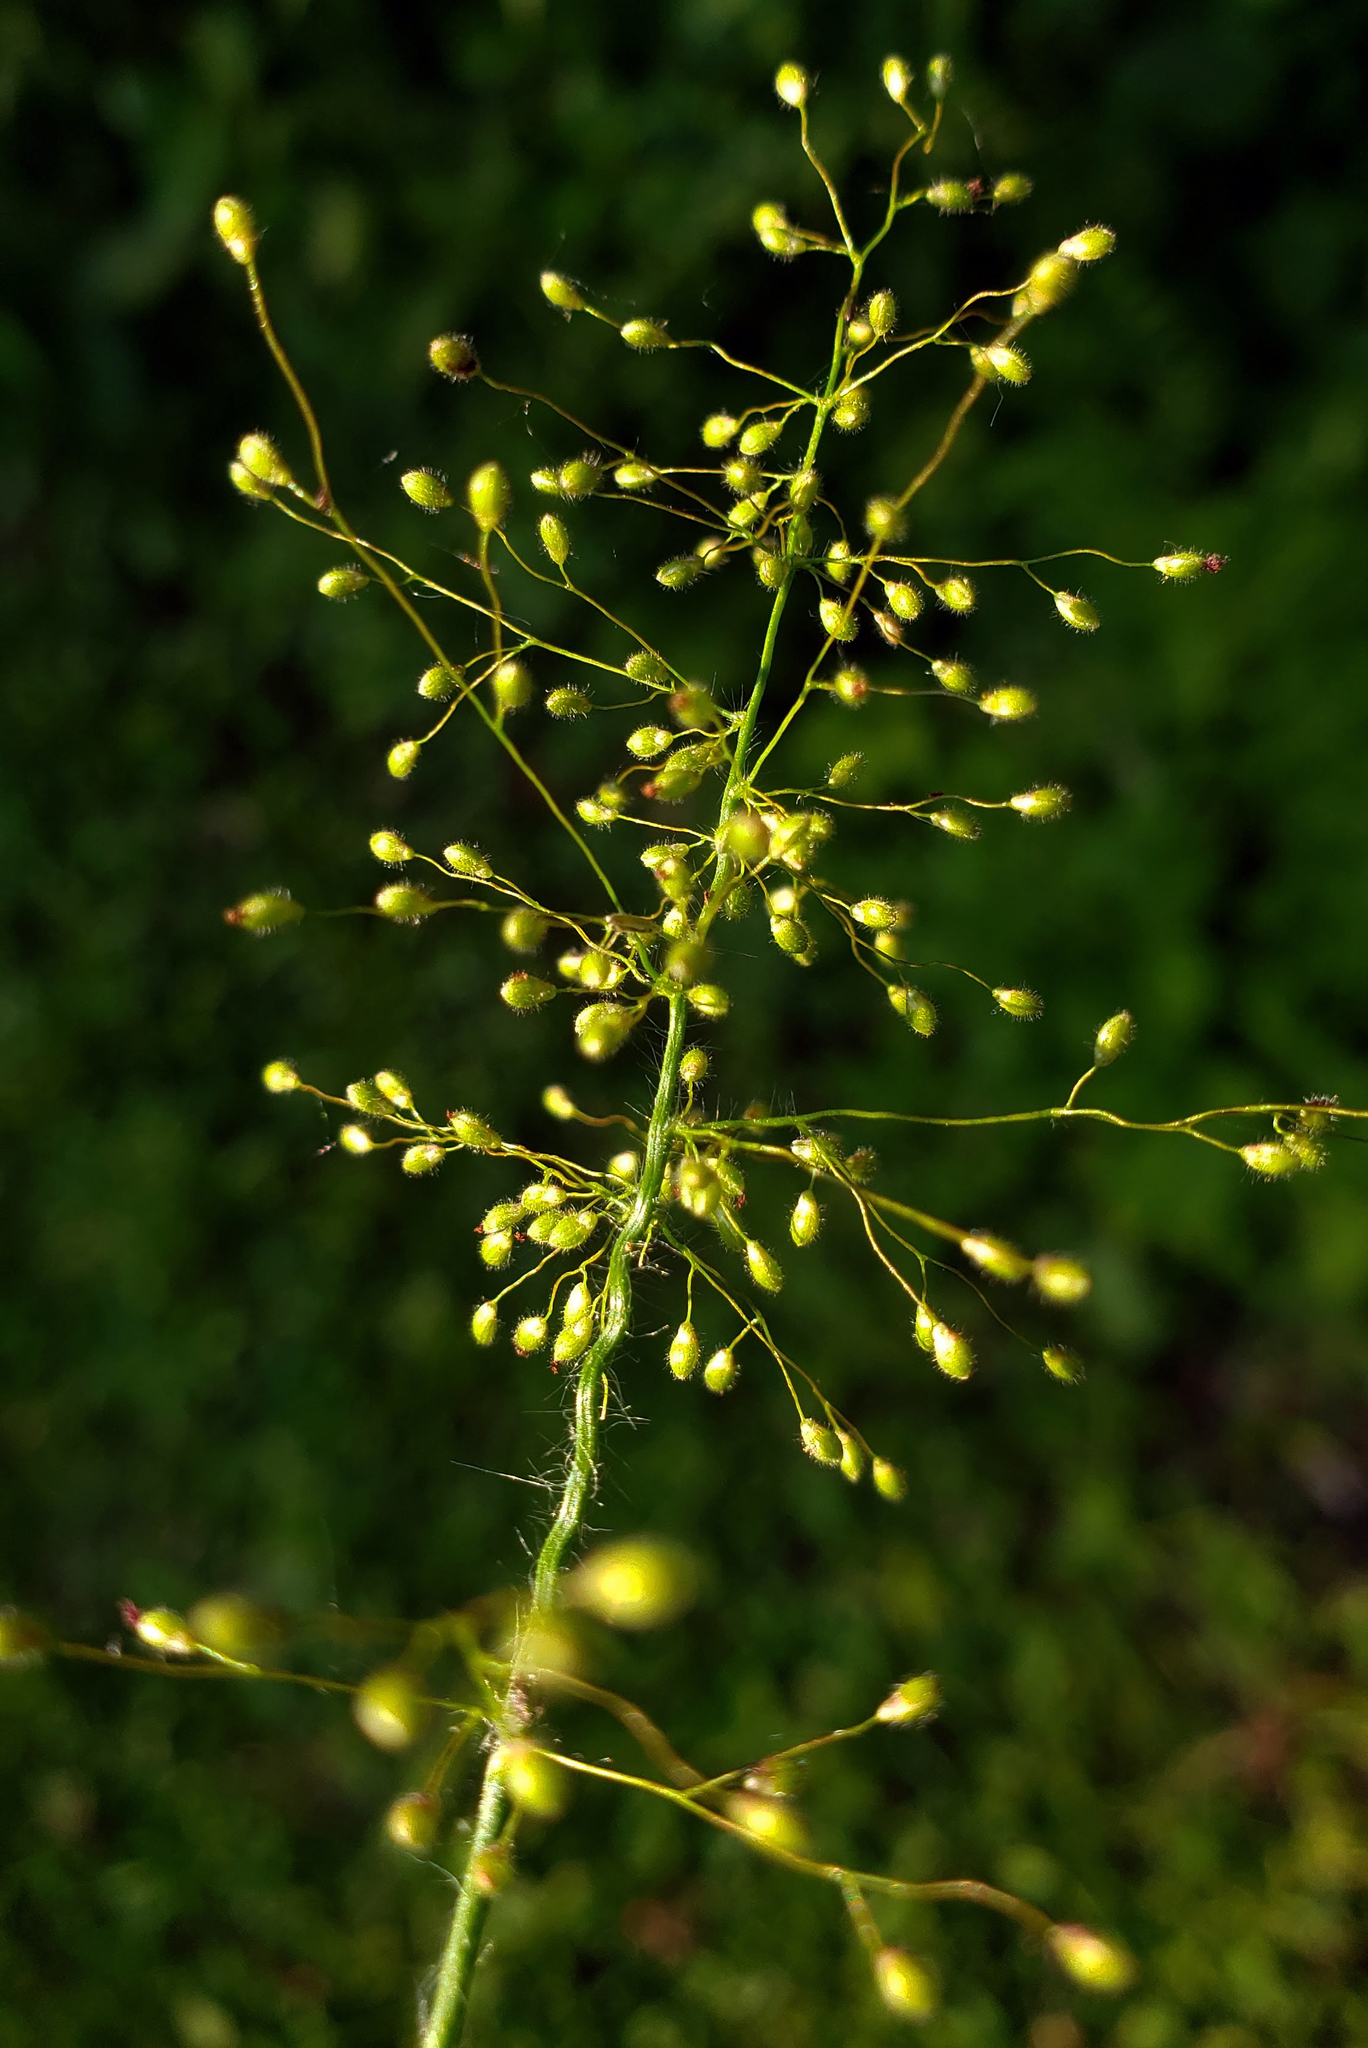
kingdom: Plantae
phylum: Tracheophyta
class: Liliopsida
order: Poales
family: Poaceae
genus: Dichanthelium
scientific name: Dichanthelium scribnerianum
